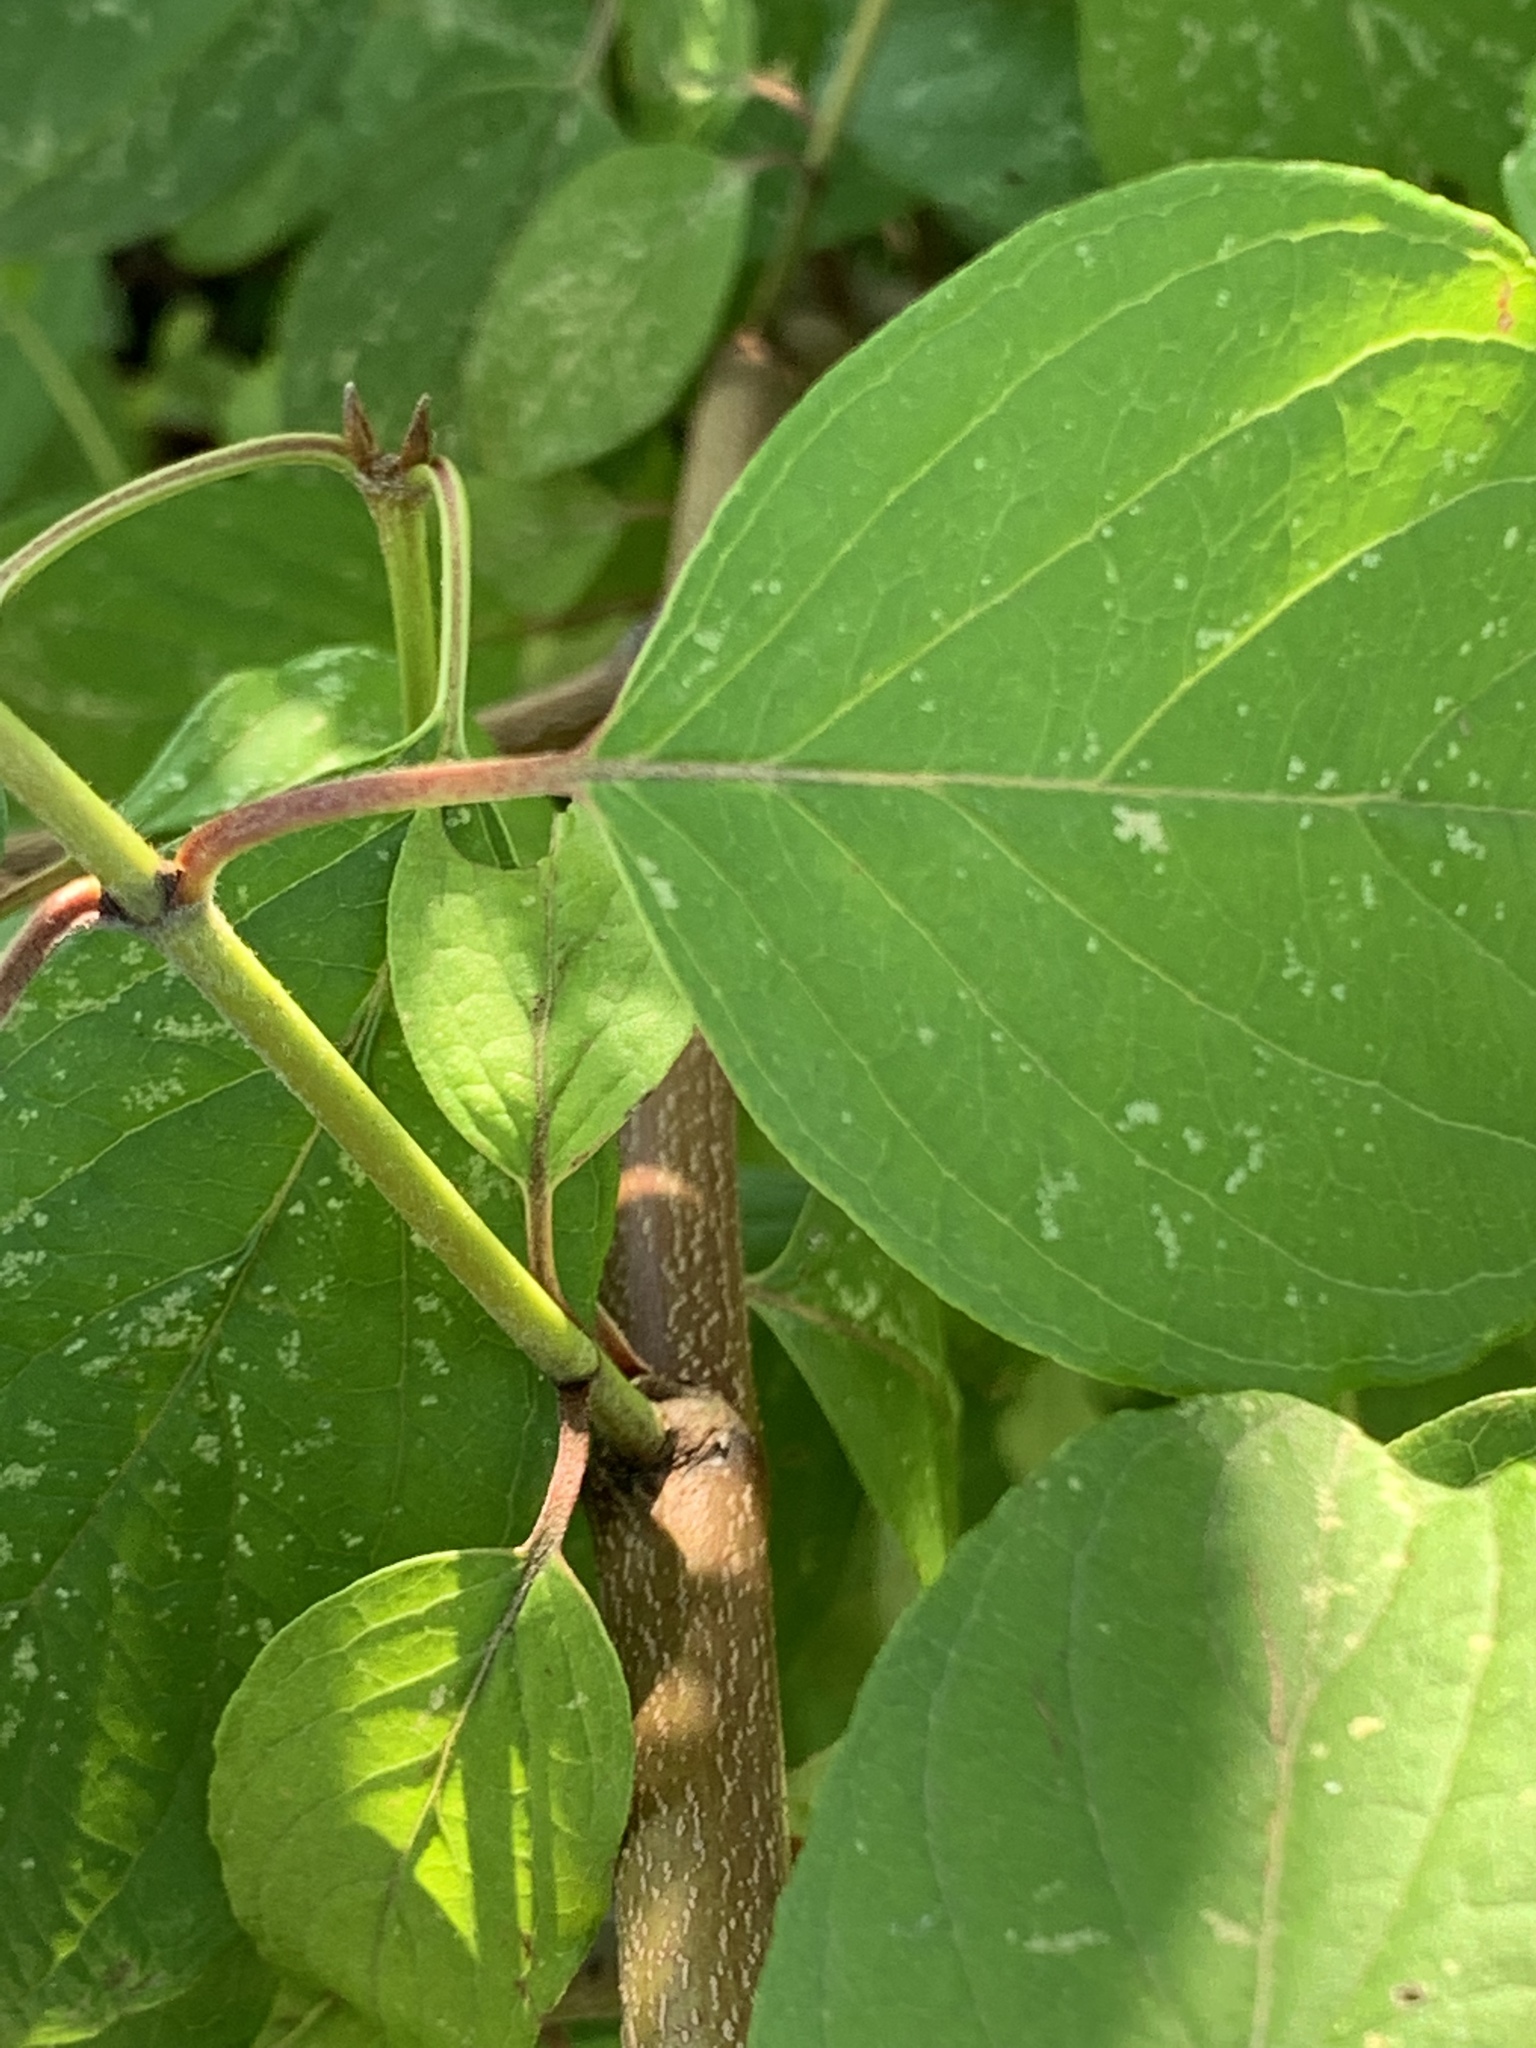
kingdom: Plantae
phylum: Tracheophyta
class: Magnoliopsida
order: Cornales
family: Cornaceae
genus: Cornus
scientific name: Cornus amomum
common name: Silky dogwood
